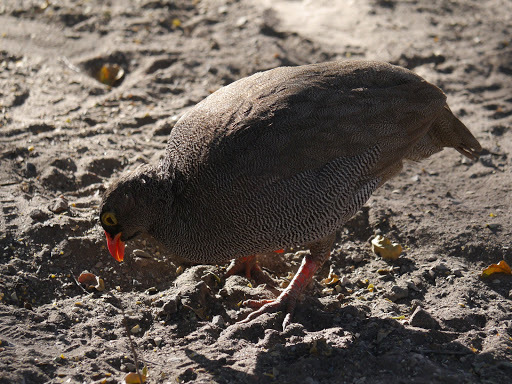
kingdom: Animalia
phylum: Chordata
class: Aves
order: Galliformes
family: Phasianidae
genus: Pternistis
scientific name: Pternistis adspersus
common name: Red-billed spurfowl
